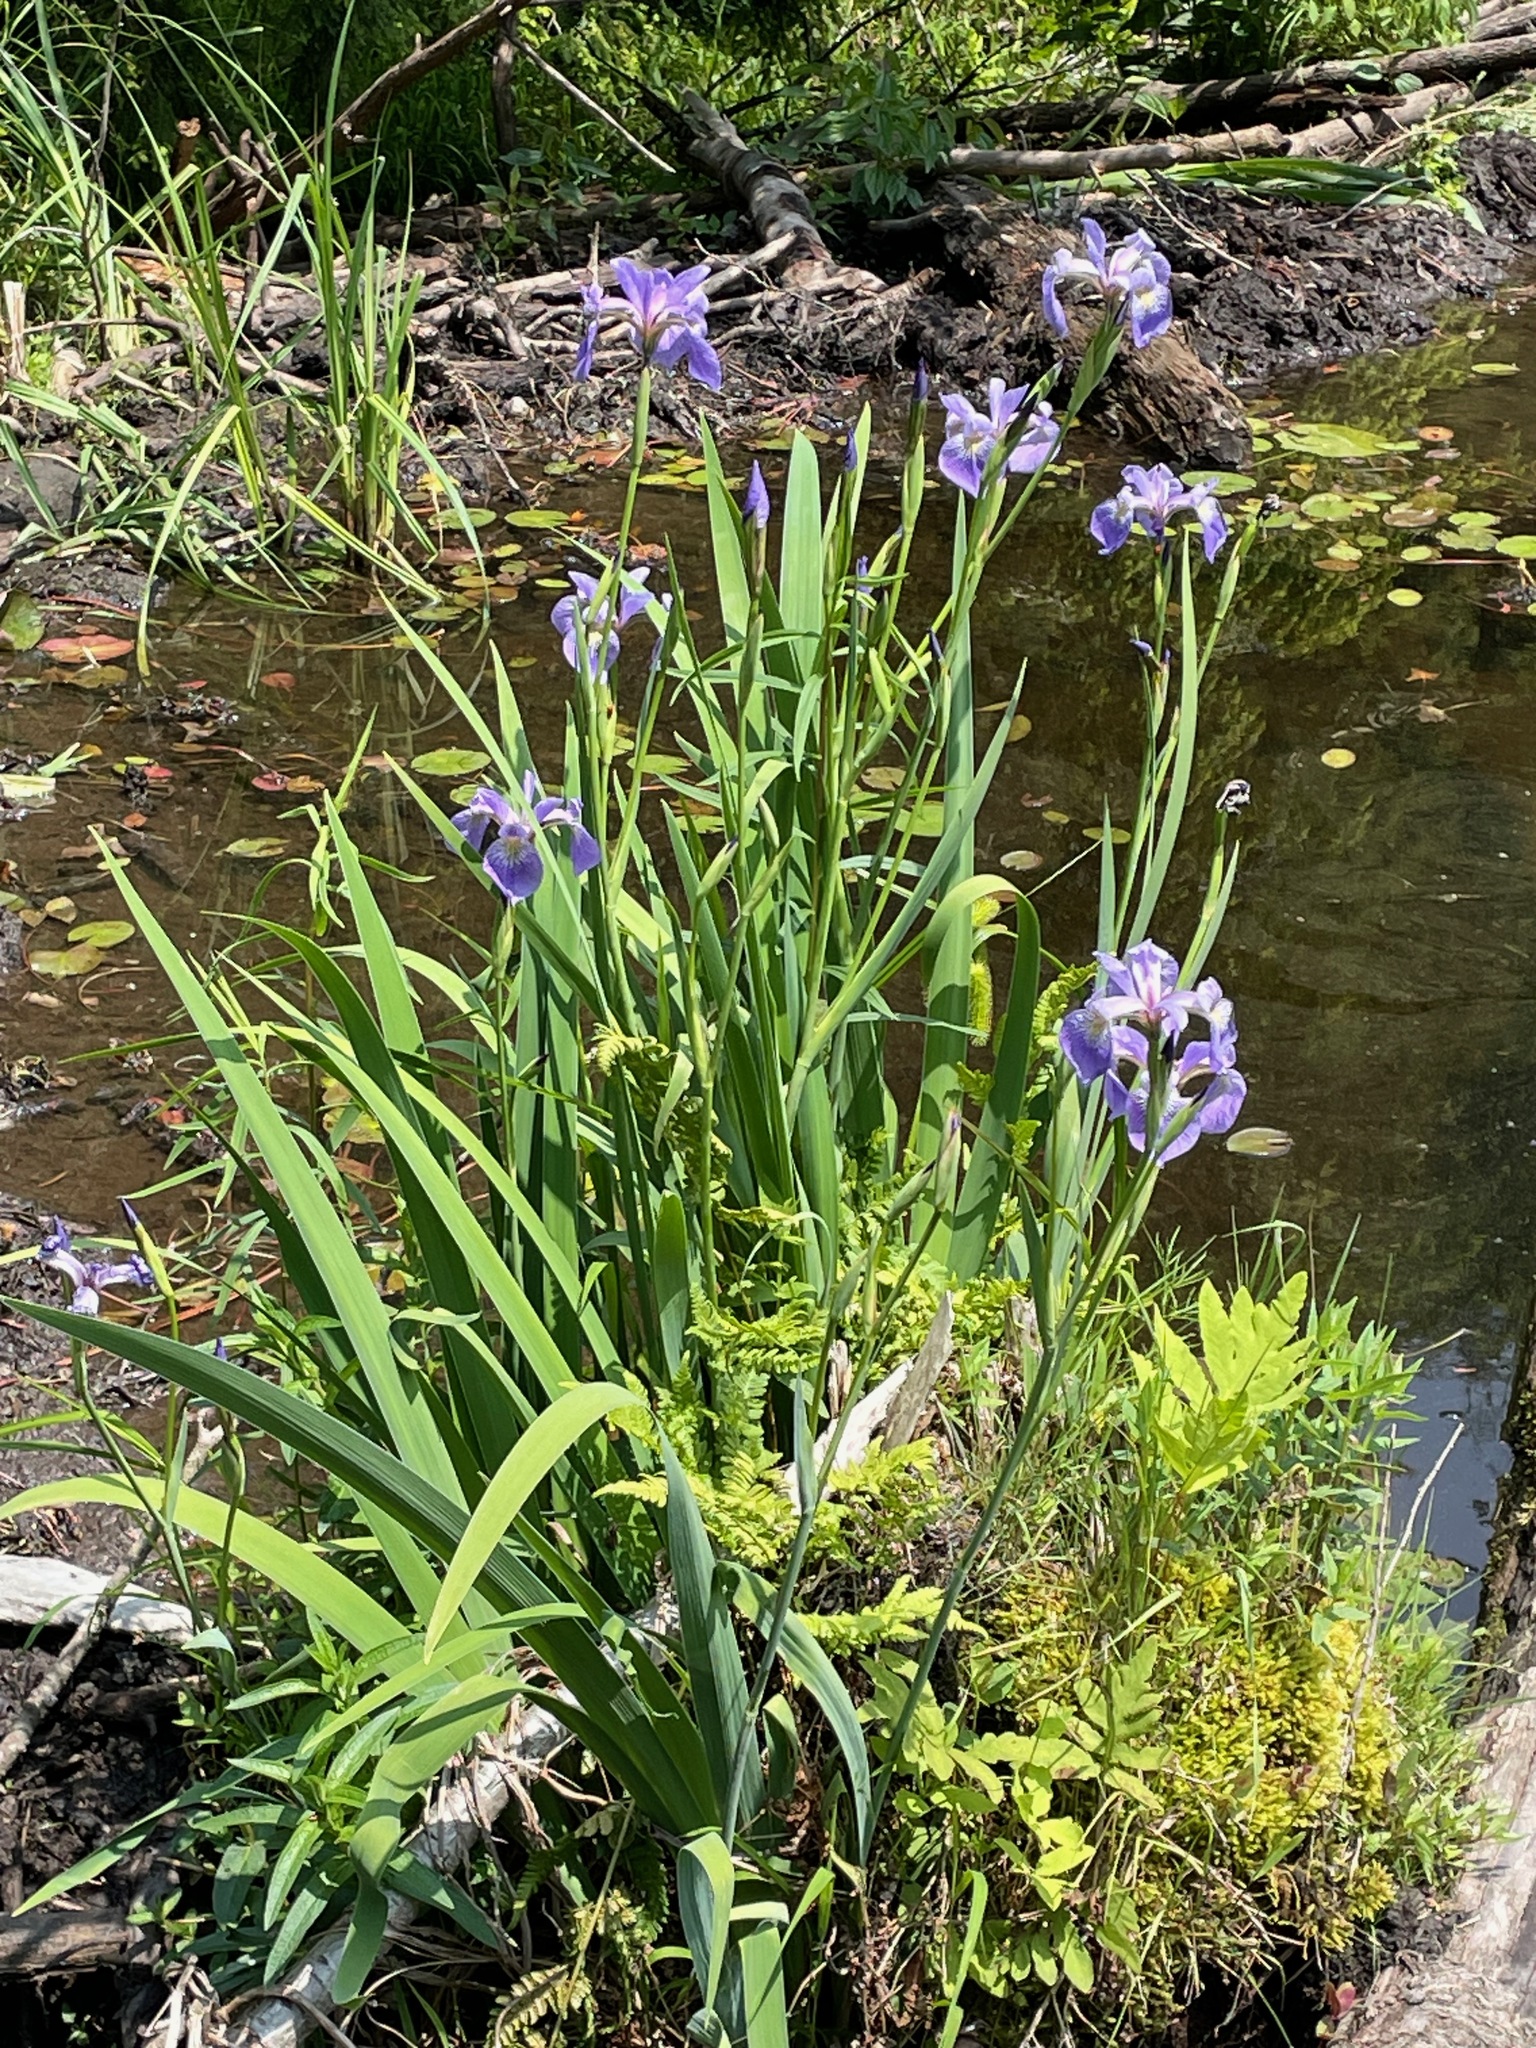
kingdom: Plantae
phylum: Tracheophyta
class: Liliopsida
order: Asparagales
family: Iridaceae
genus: Iris
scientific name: Iris versicolor
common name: Purple iris
